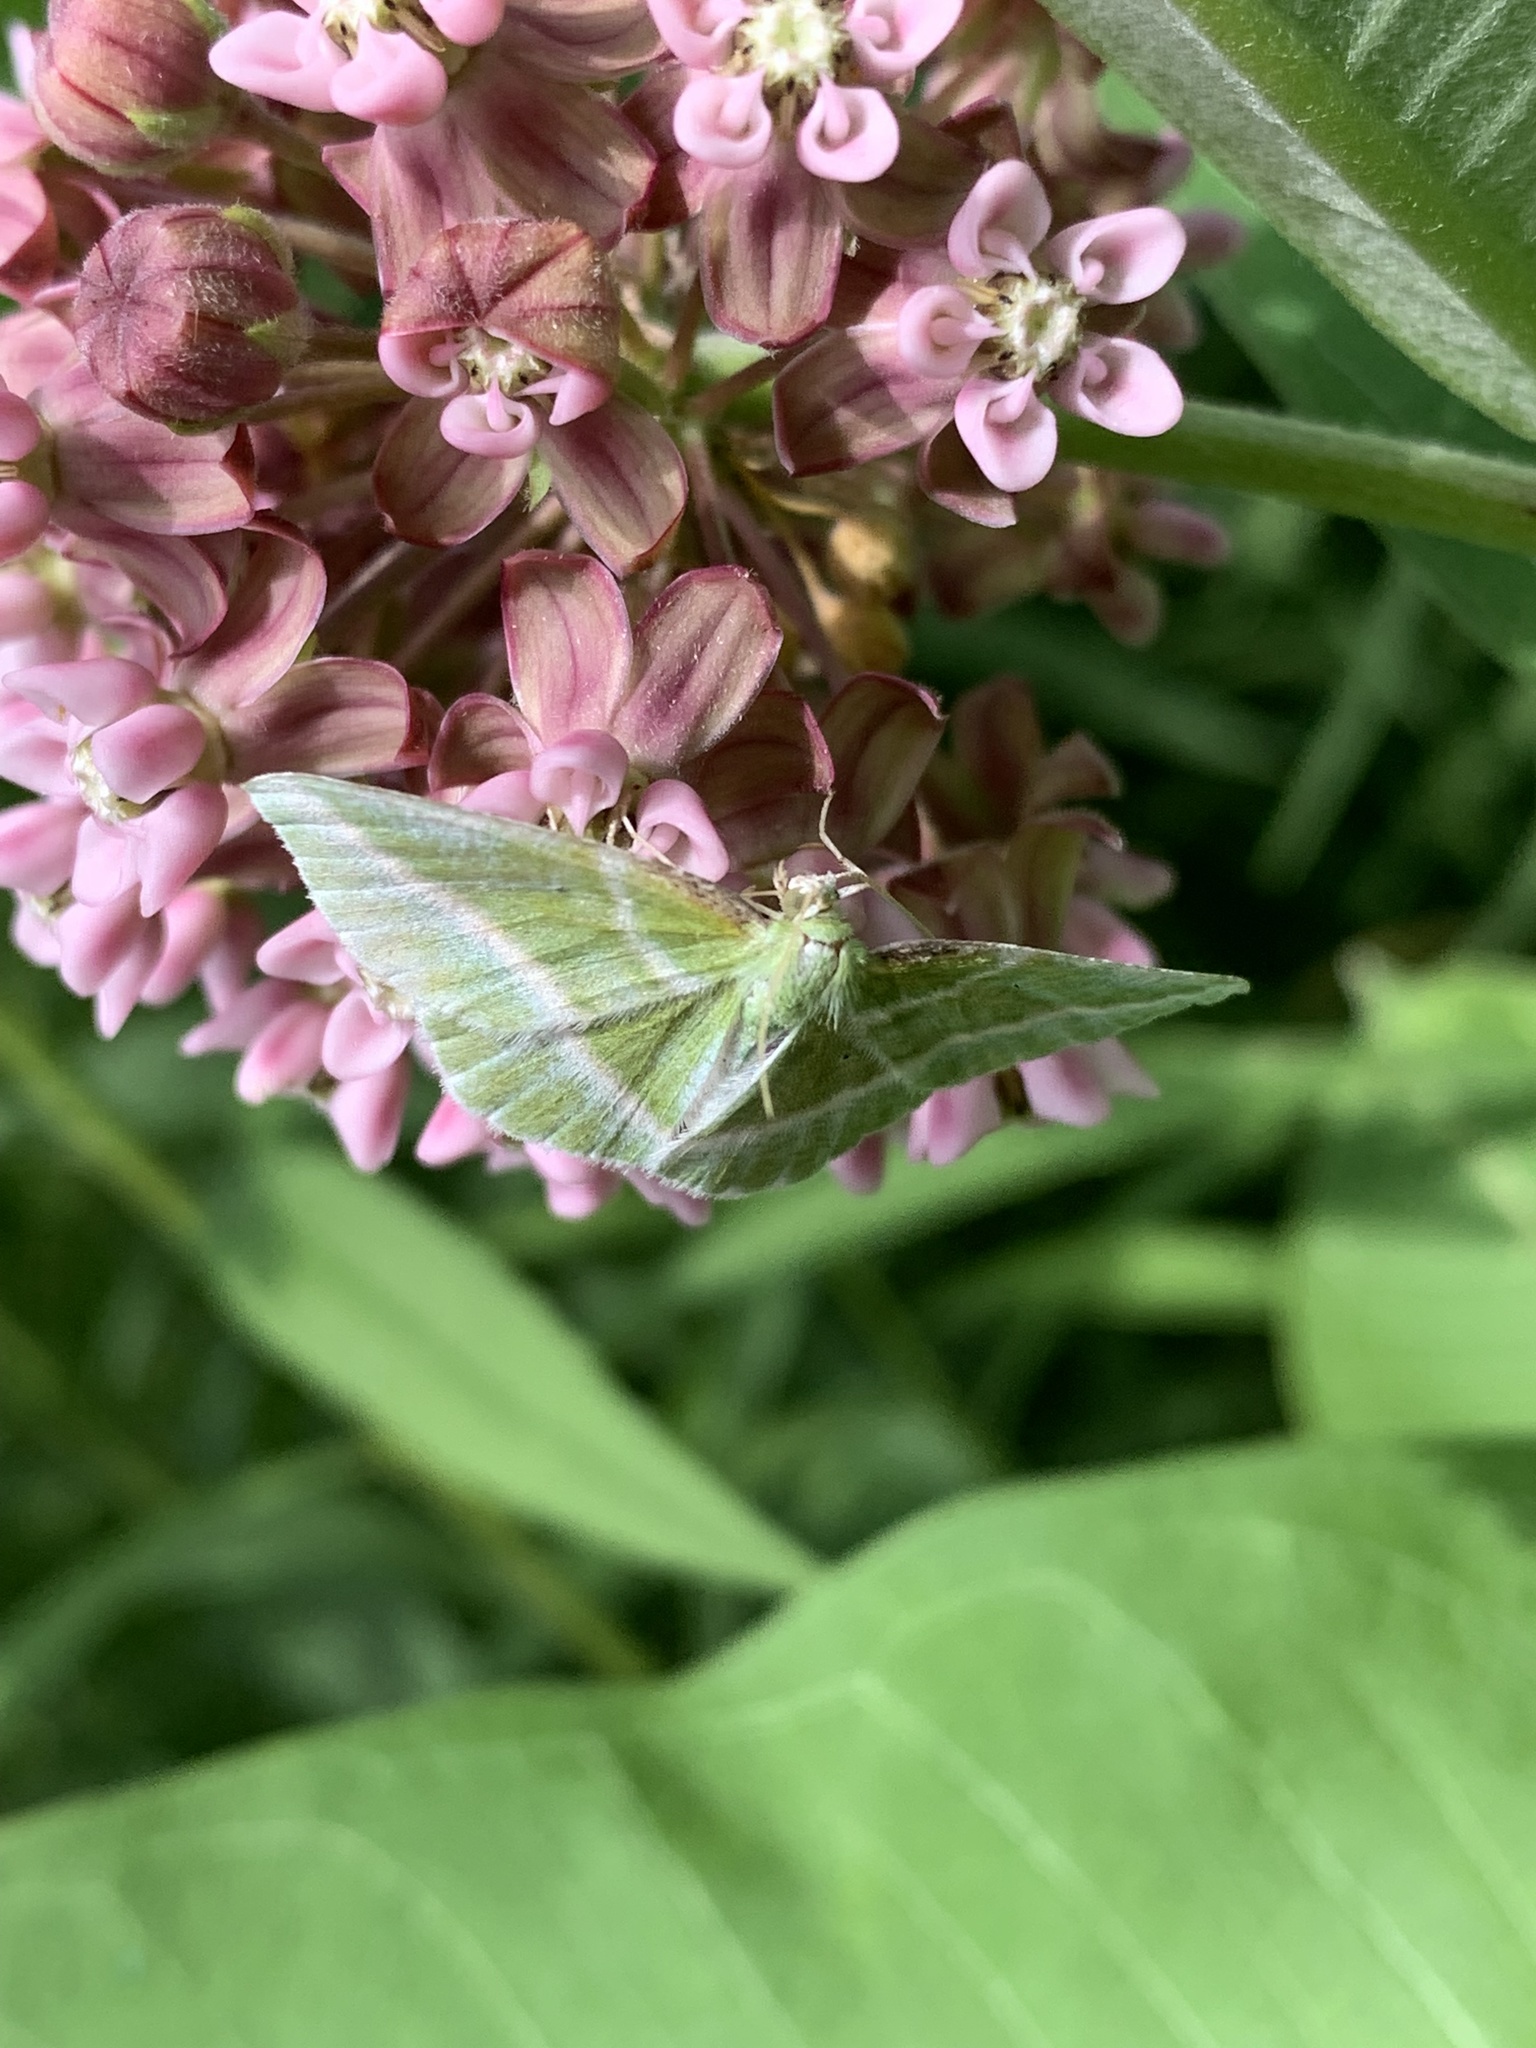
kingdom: Animalia
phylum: Arthropoda
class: Insecta
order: Lepidoptera
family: Geometridae
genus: Dichorda
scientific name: Dichorda iridaria
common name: Showy emerald
